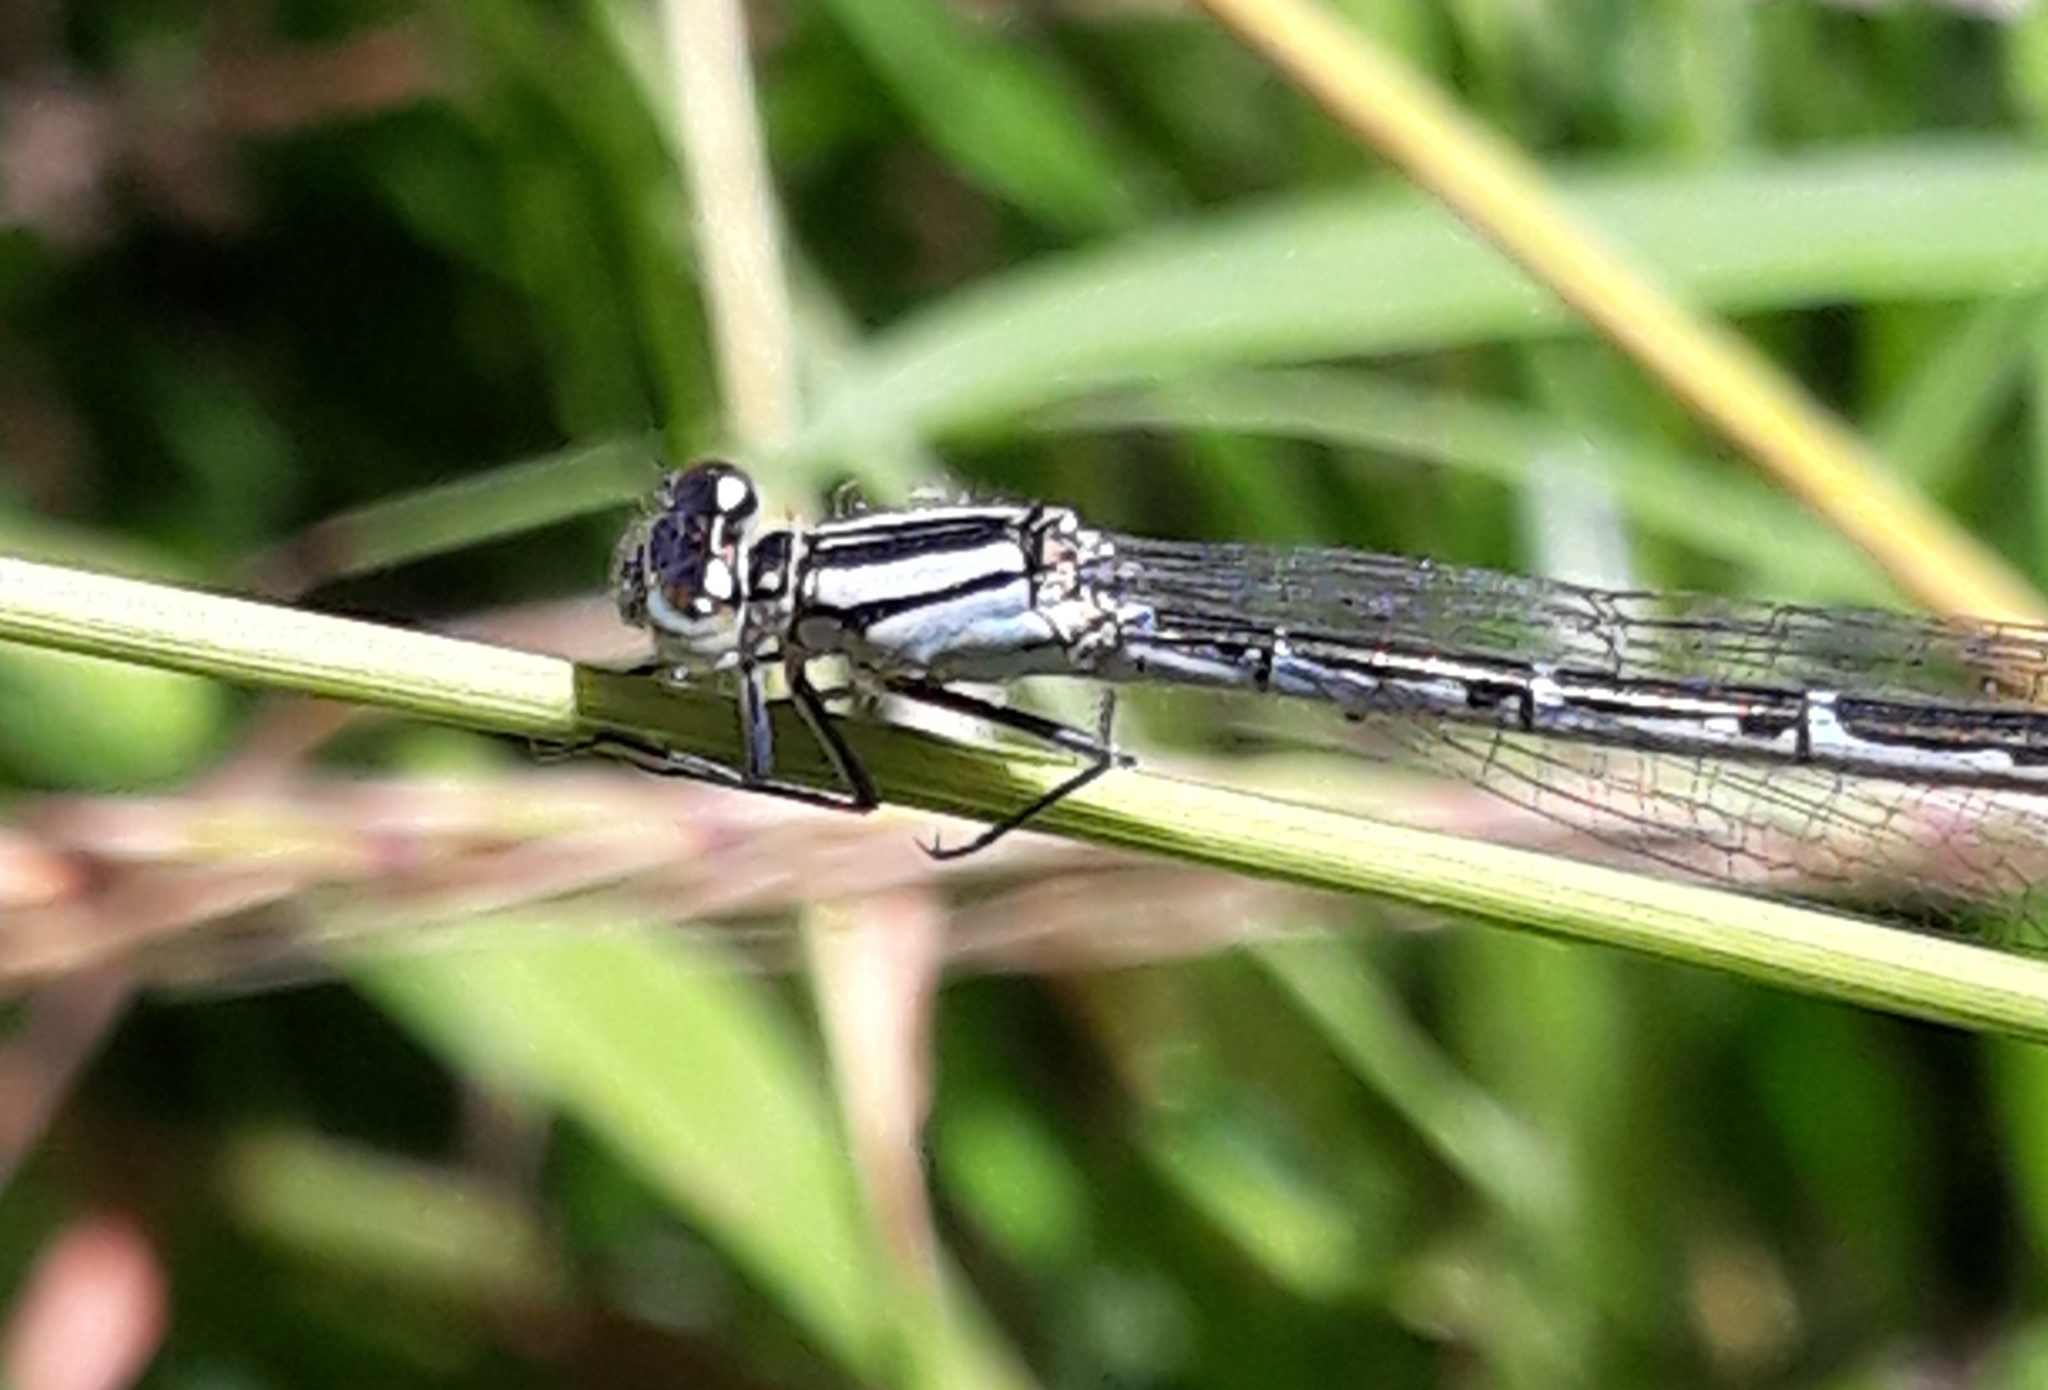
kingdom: Animalia
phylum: Arthropoda
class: Insecta
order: Odonata
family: Coenagrionidae
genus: Enallagma
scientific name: Enallagma cyathigerum
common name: Common blue damselfly
